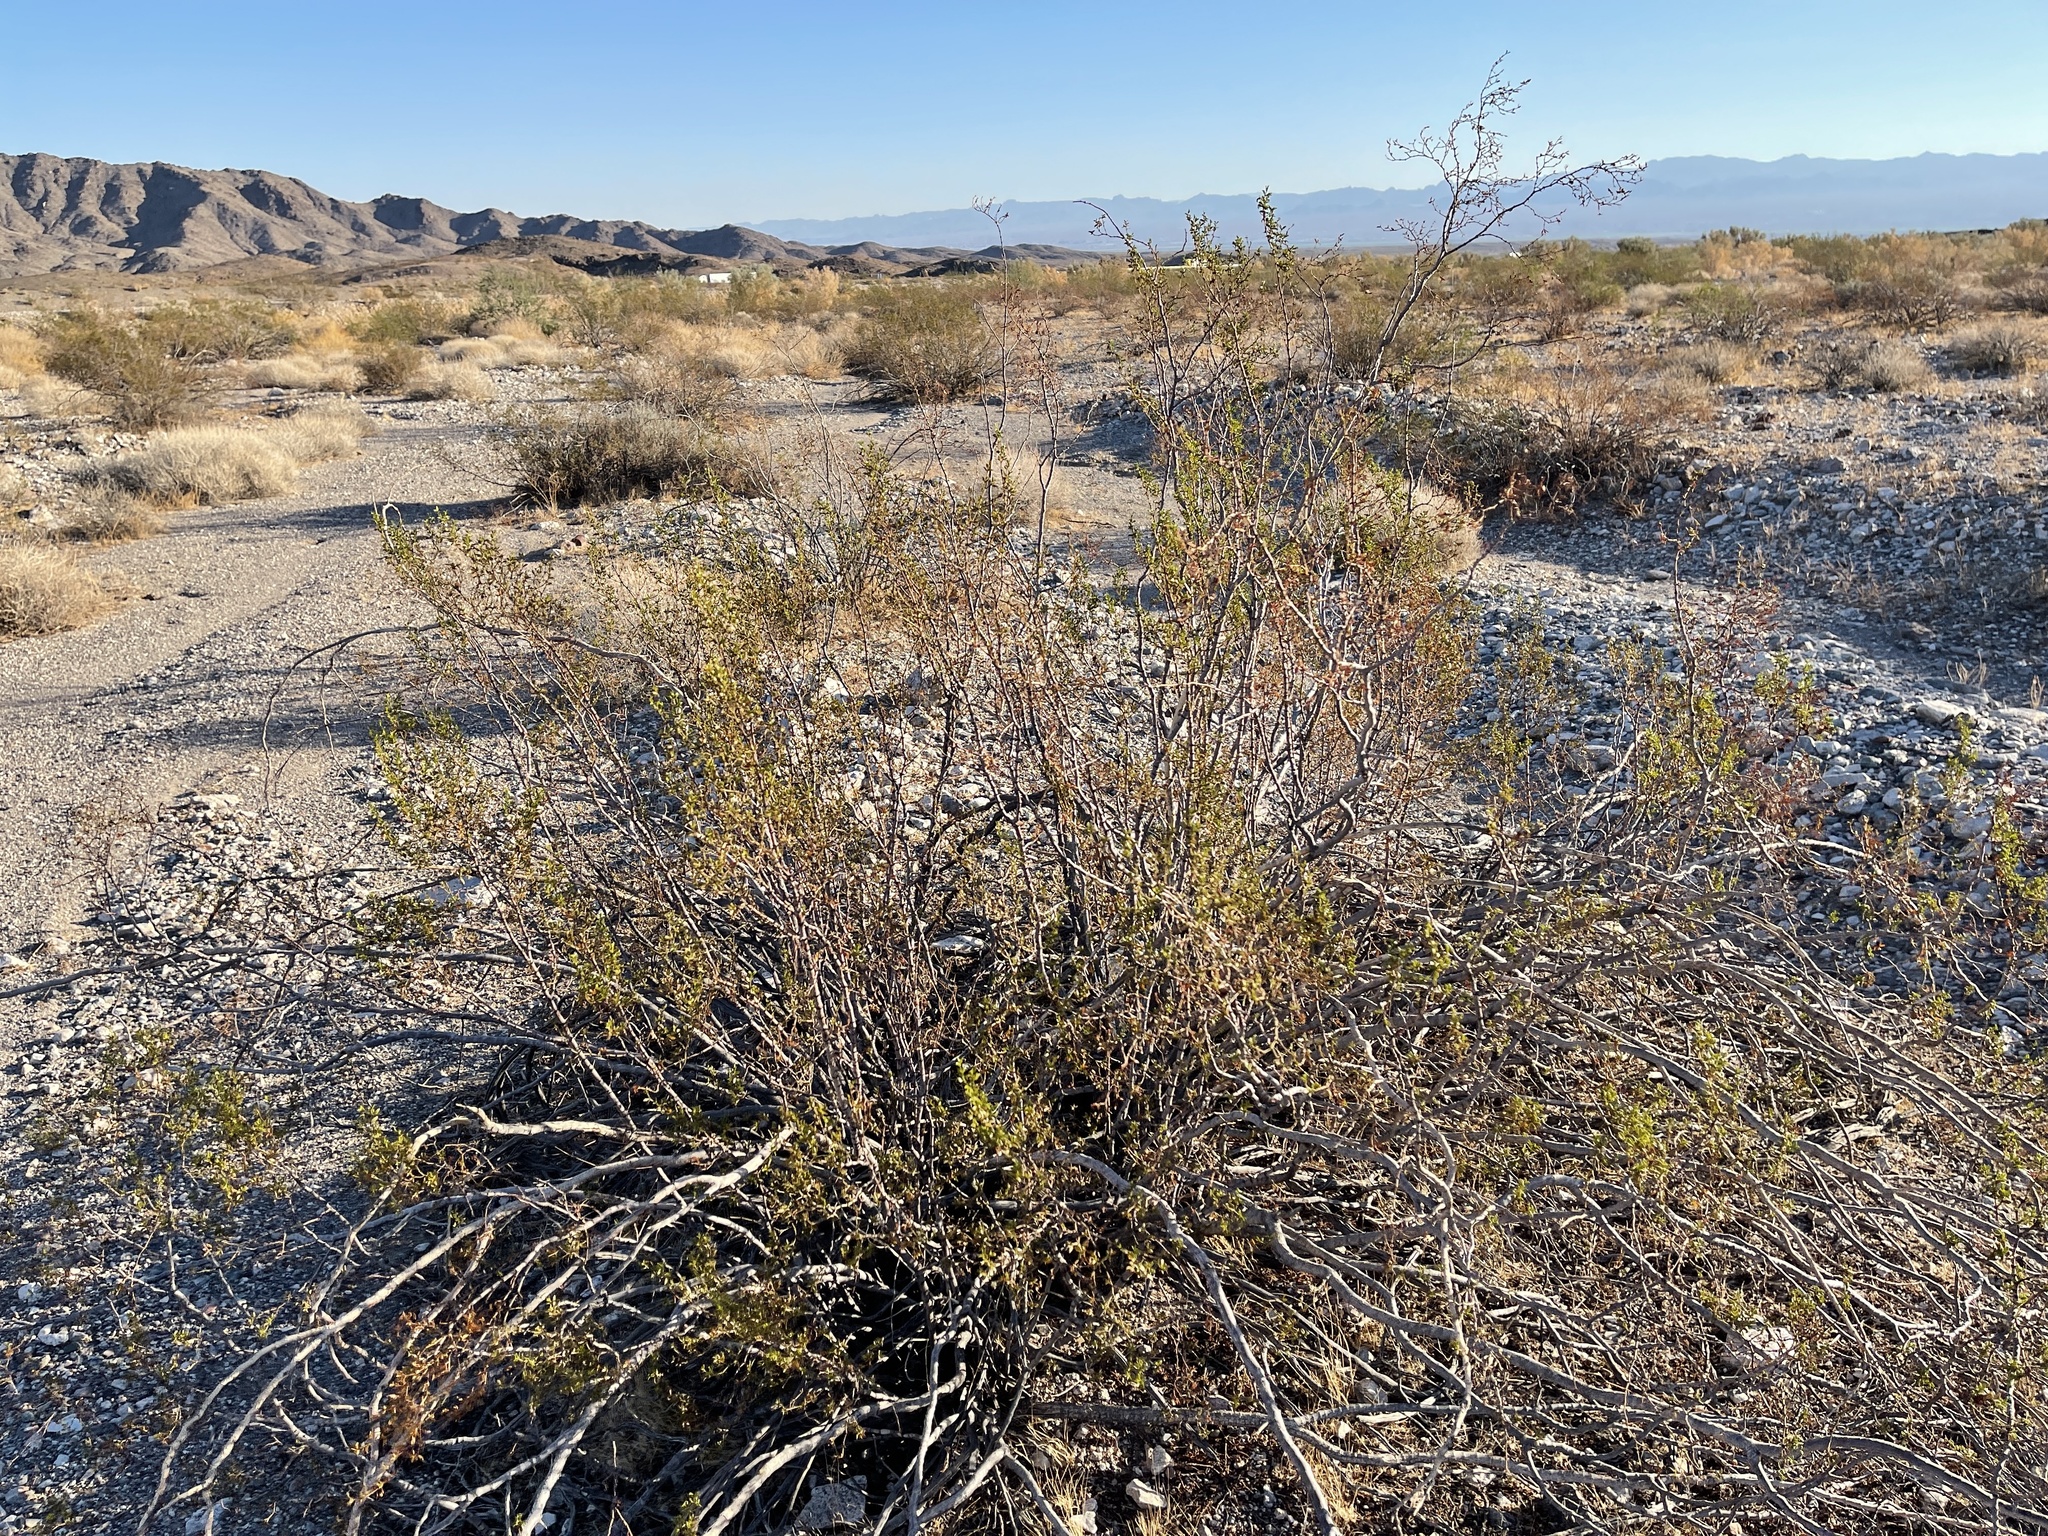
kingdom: Plantae
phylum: Tracheophyta
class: Magnoliopsida
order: Zygophyllales
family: Zygophyllaceae
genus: Larrea
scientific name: Larrea tridentata
